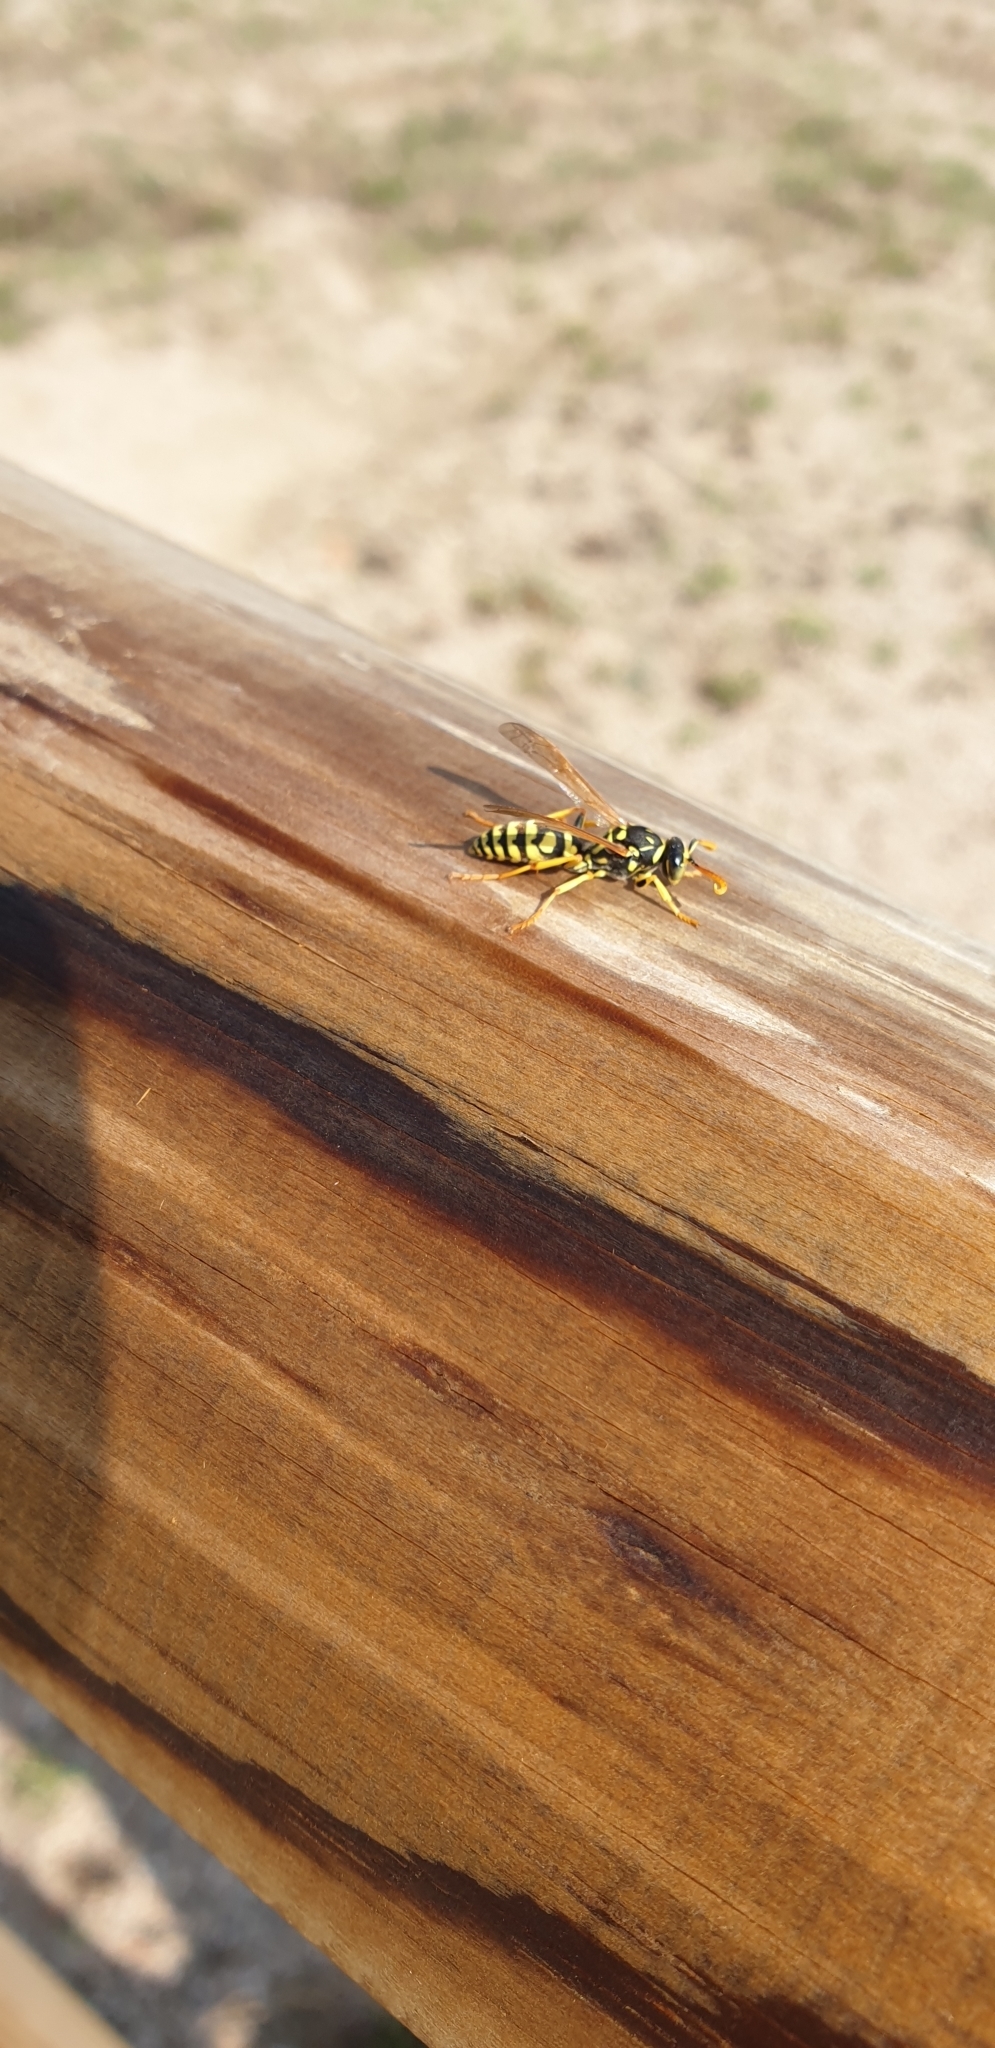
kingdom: Animalia
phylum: Arthropoda
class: Insecta
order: Hymenoptera
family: Eumenidae
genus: Polistes
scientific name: Polistes dominula
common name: Paper wasp
